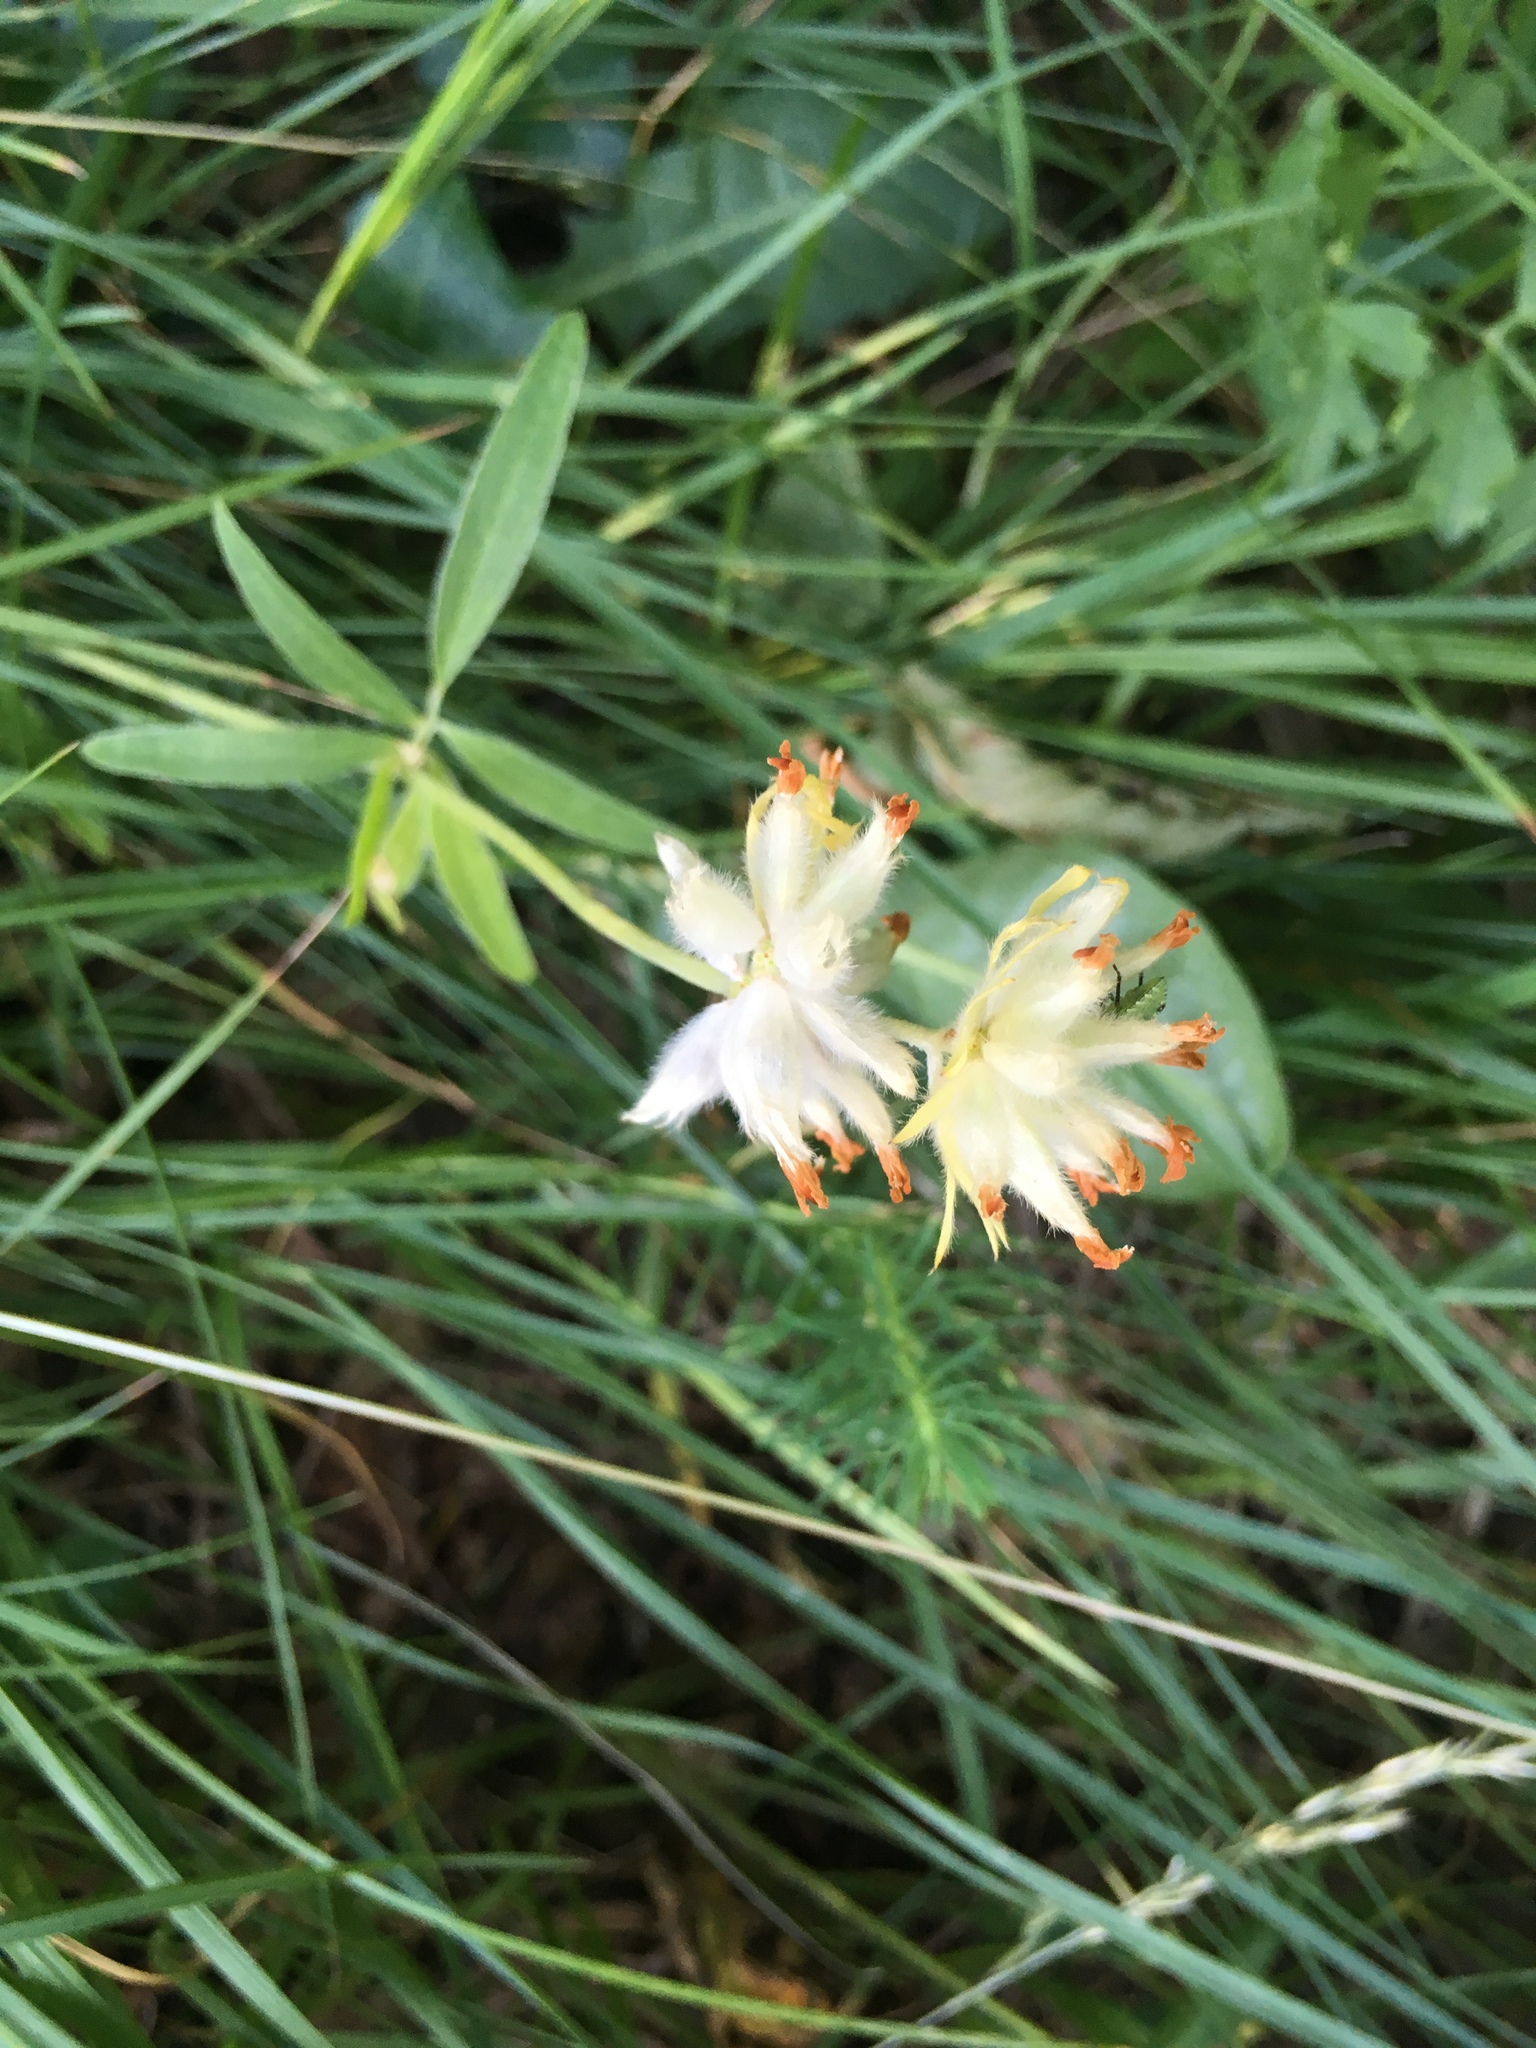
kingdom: Plantae
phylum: Tracheophyta
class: Magnoliopsida
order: Fabales
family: Fabaceae
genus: Anthyllis
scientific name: Anthyllis vulneraria
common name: Kidney vetch
